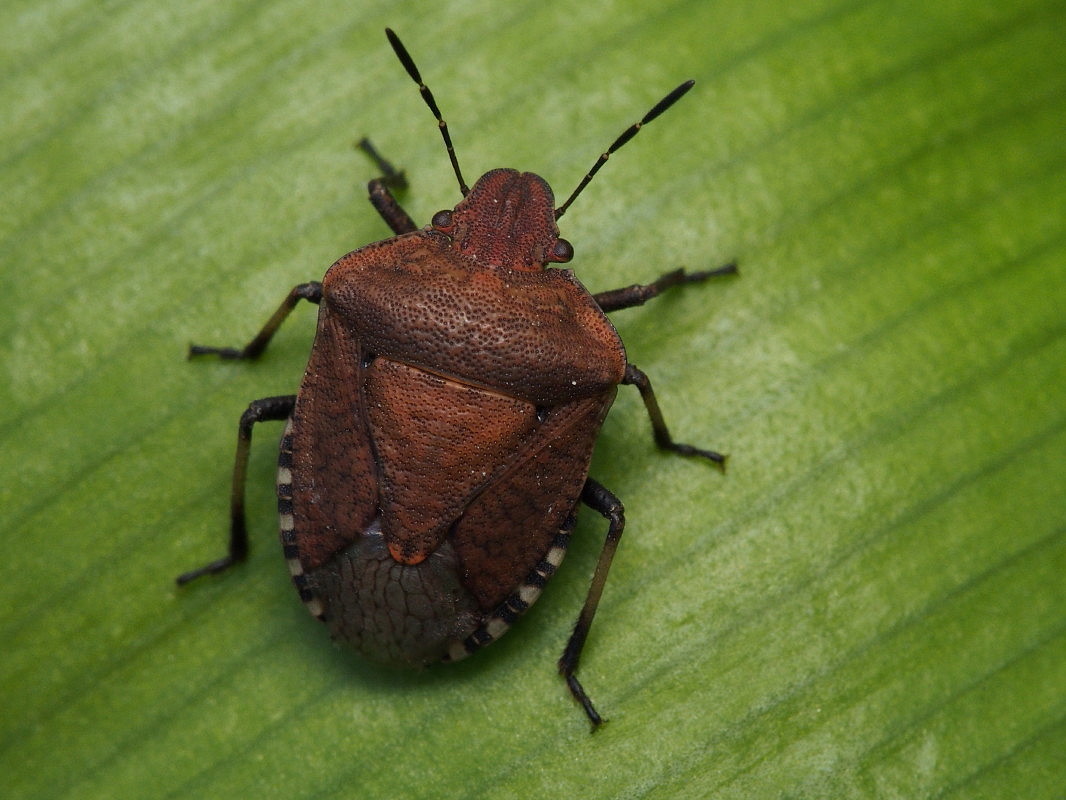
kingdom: Animalia
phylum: Arthropoda
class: Insecta
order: Hemiptera
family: Pentatomidae
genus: Dictyotus
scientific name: Dictyotus caenosus
